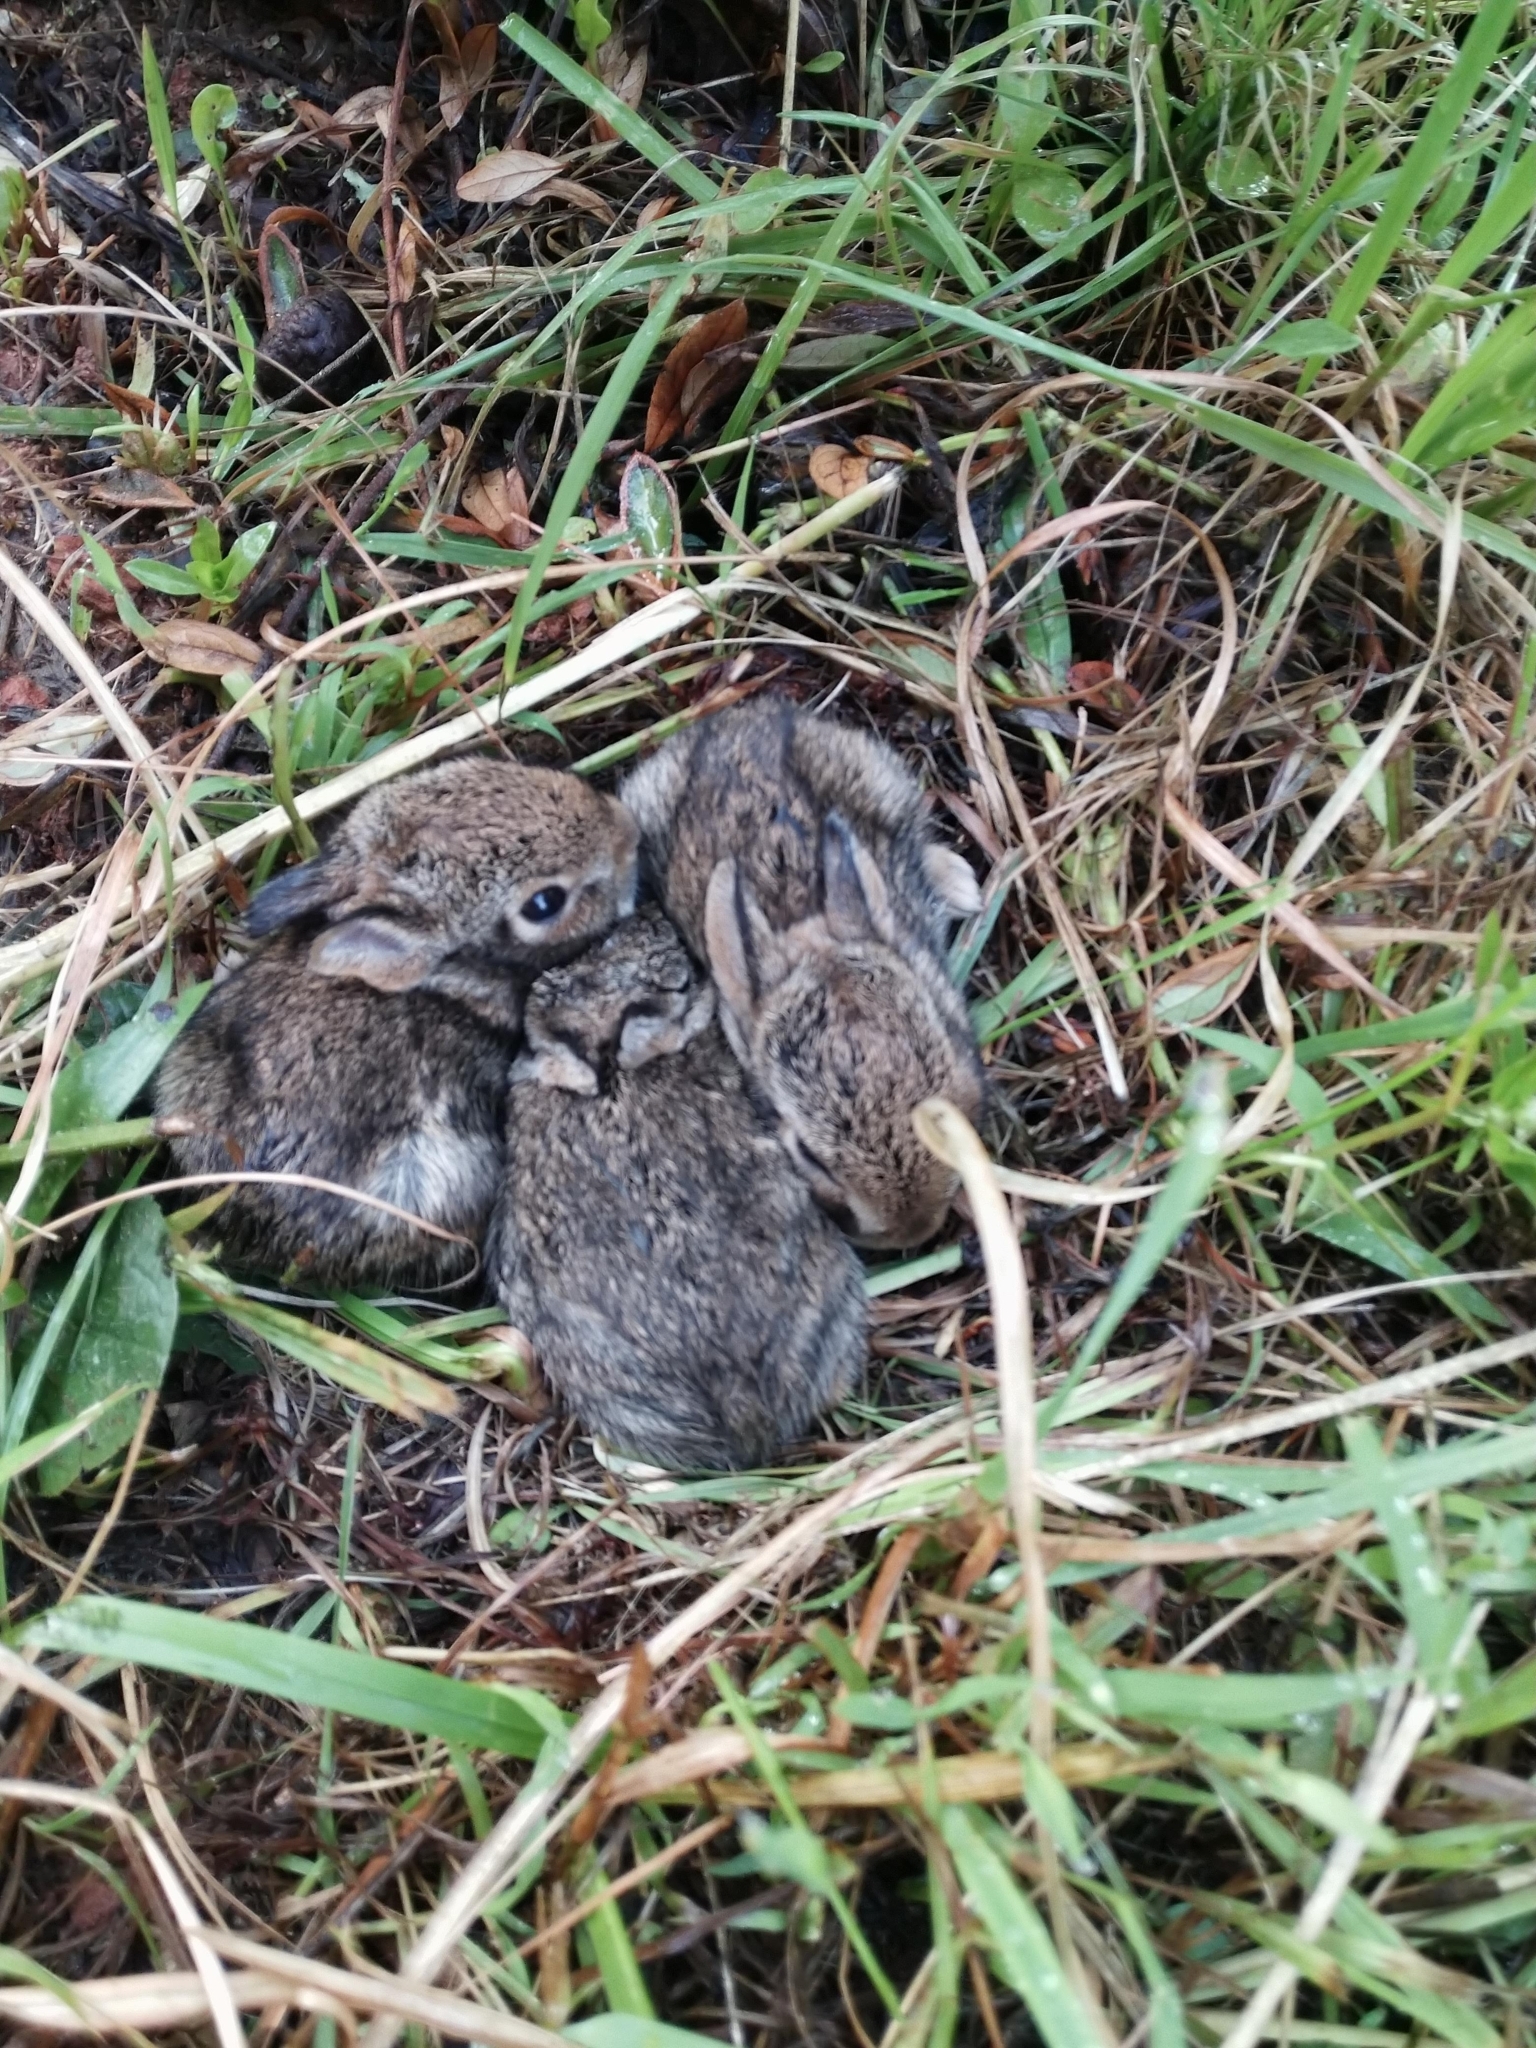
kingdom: Animalia
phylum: Chordata
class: Mammalia
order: Lagomorpha
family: Leporidae
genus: Sylvilagus
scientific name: Sylvilagus floridanus
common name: Eastern cottontail
